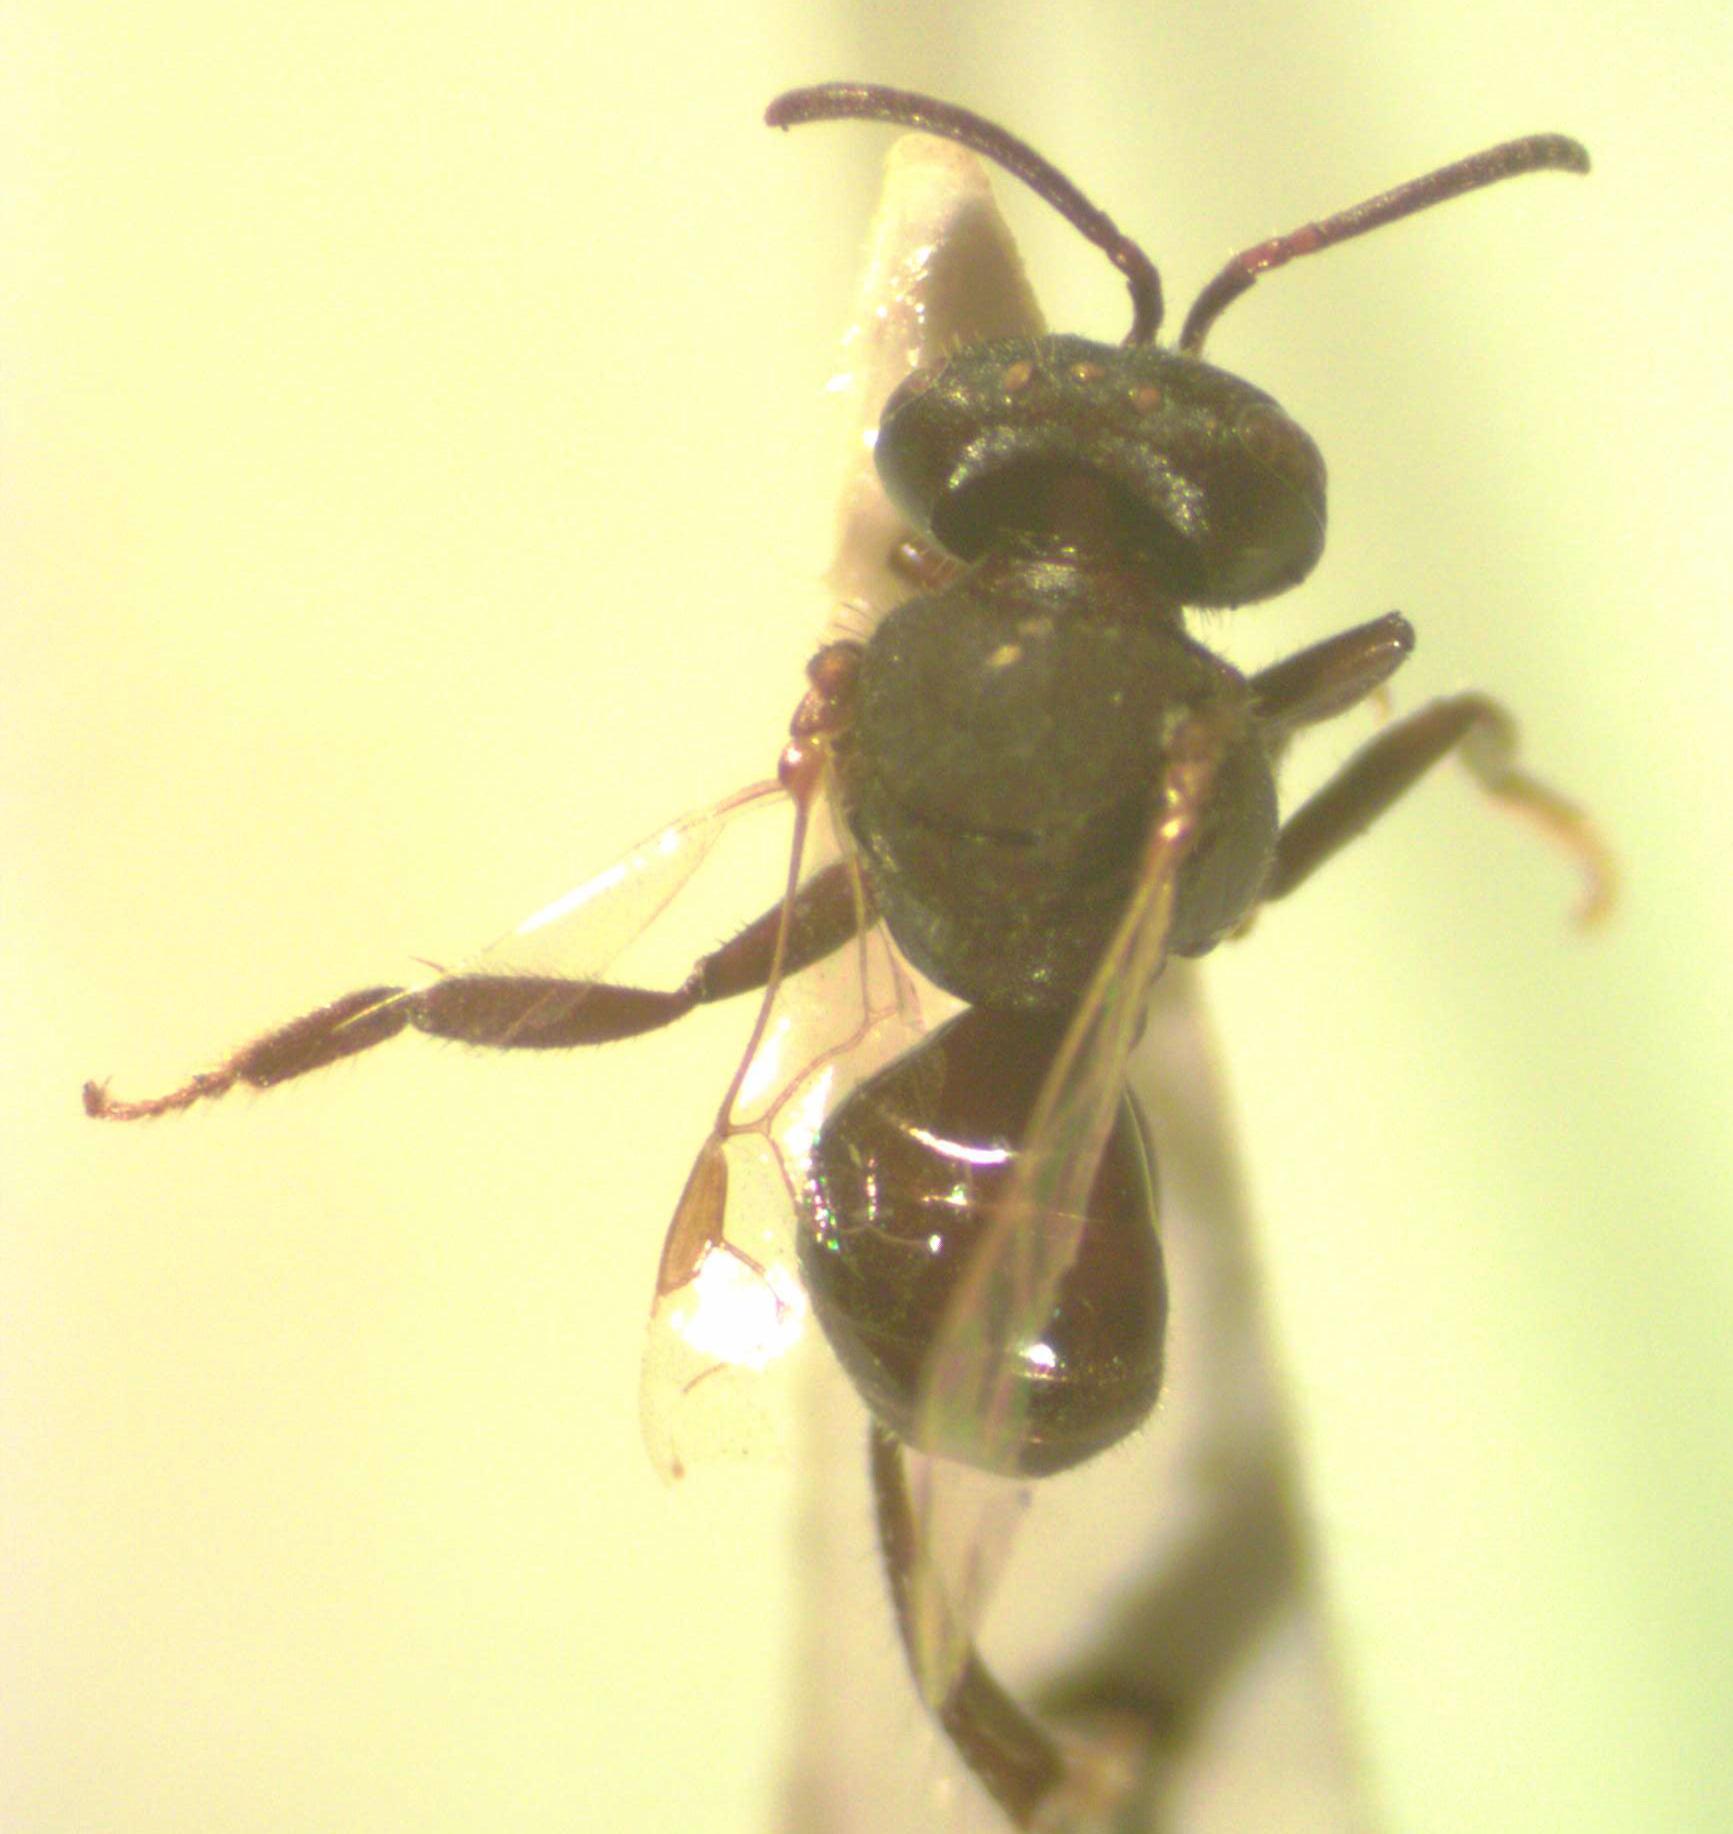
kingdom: Animalia
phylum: Arthropoda
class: Insecta
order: Hymenoptera
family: Apidae
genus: Trigonisca
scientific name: Trigonisca schulthessi
